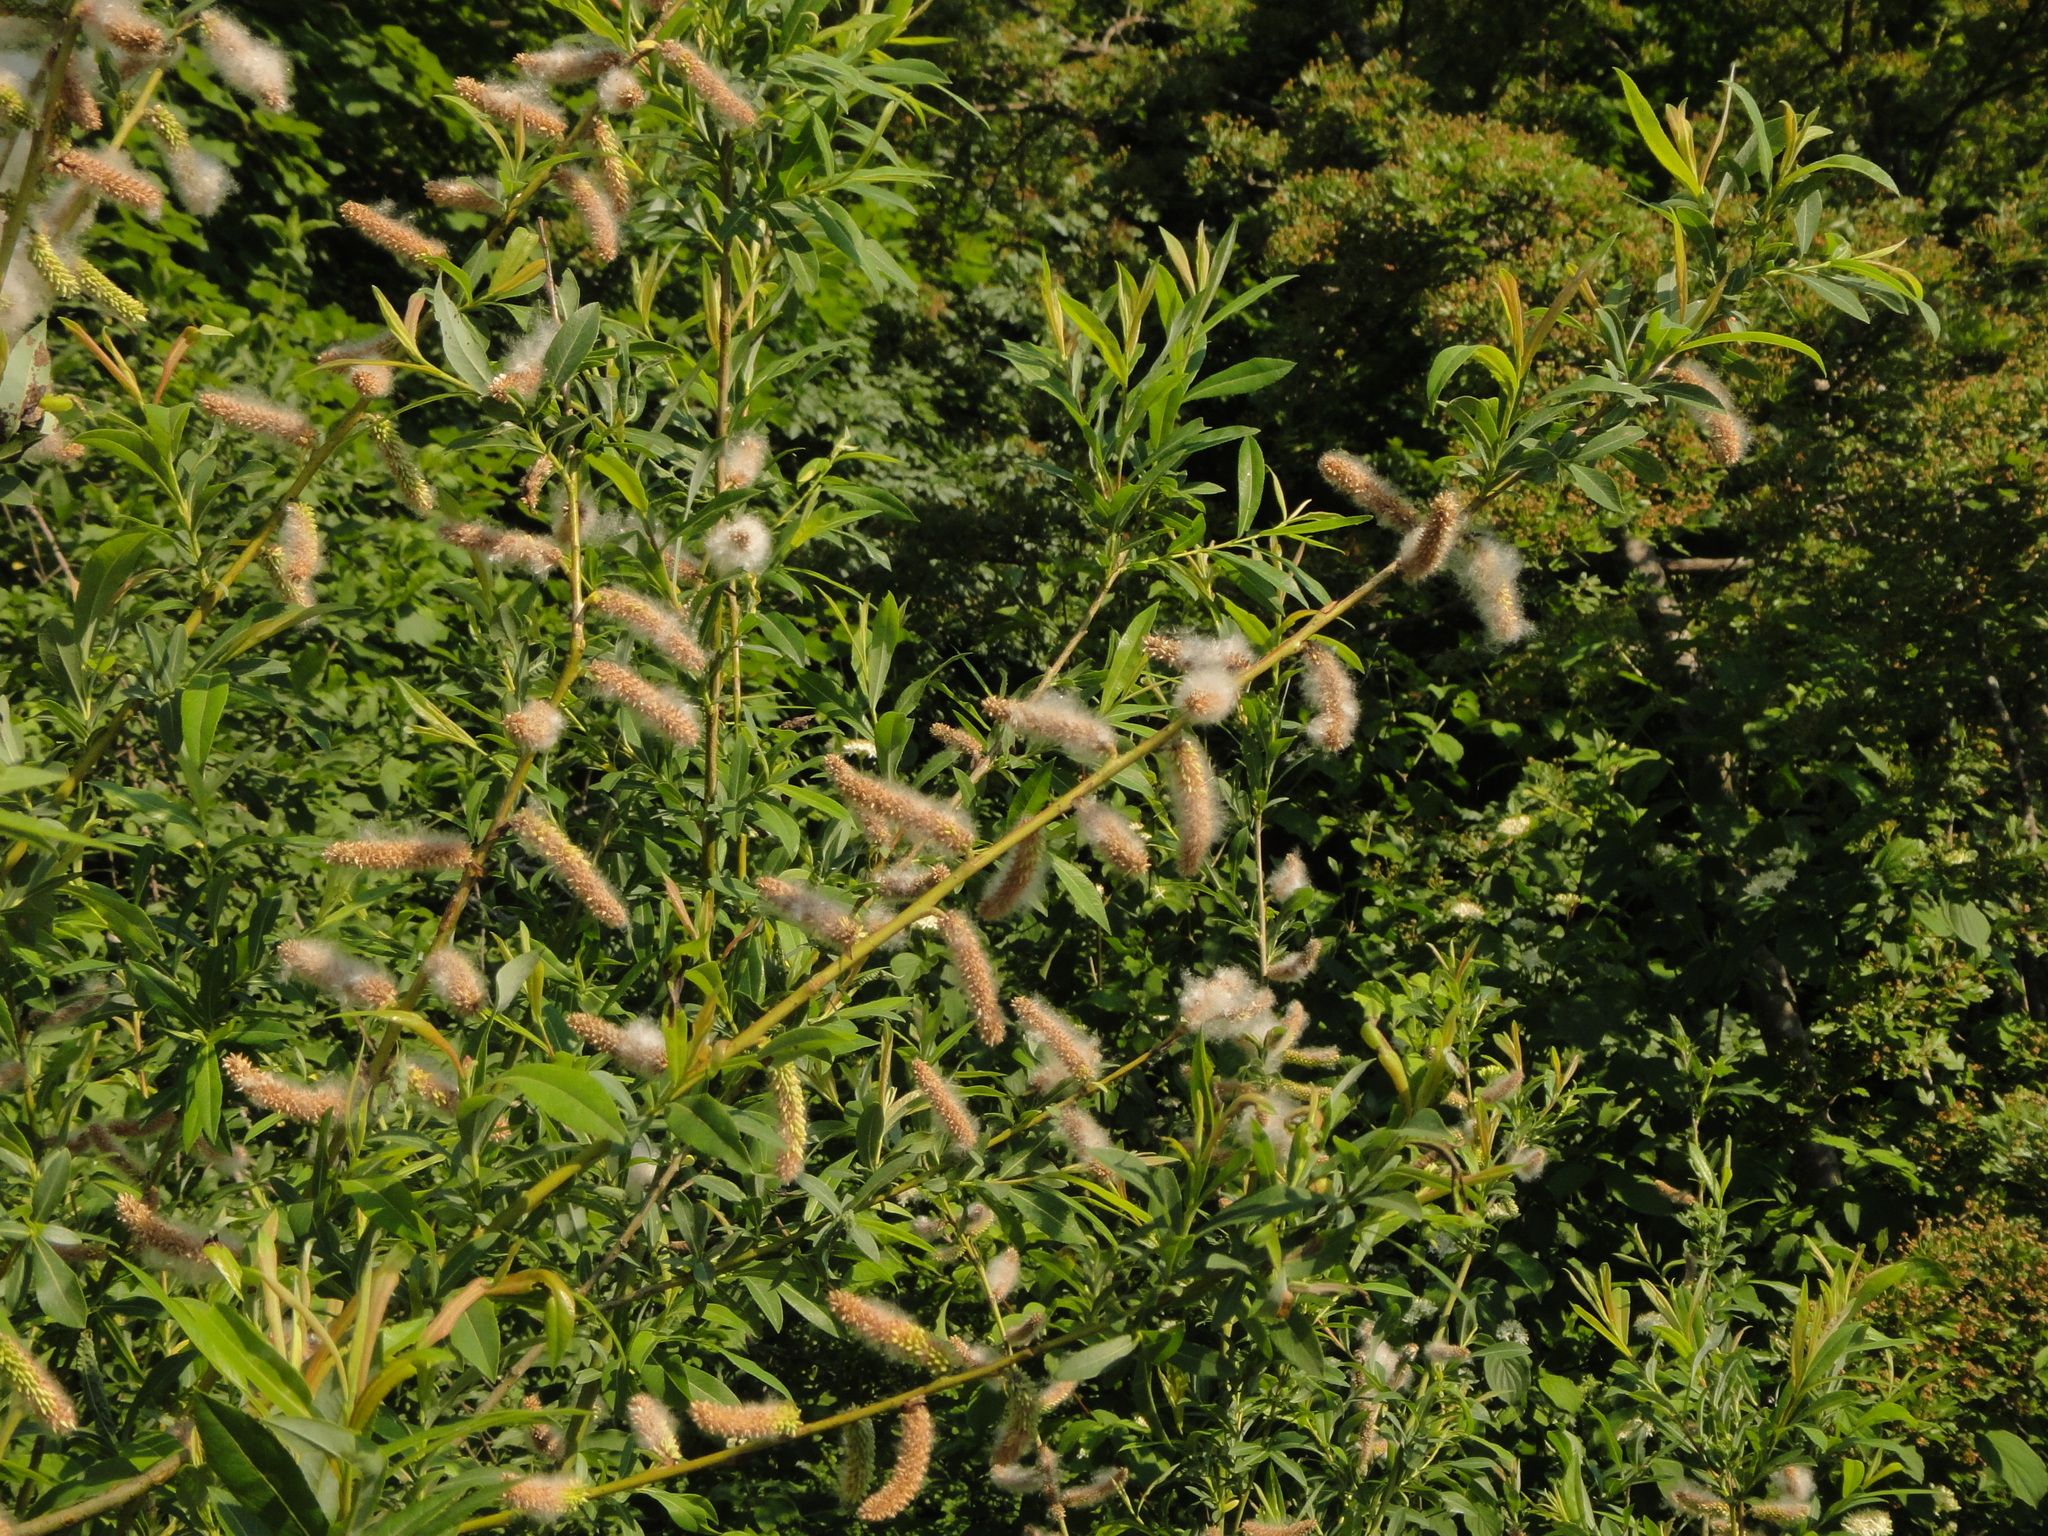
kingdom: Plantae
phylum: Tracheophyta
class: Magnoliopsida
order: Malpighiales
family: Salicaceae
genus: Salix
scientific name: Salix purpurea
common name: Purple willow
